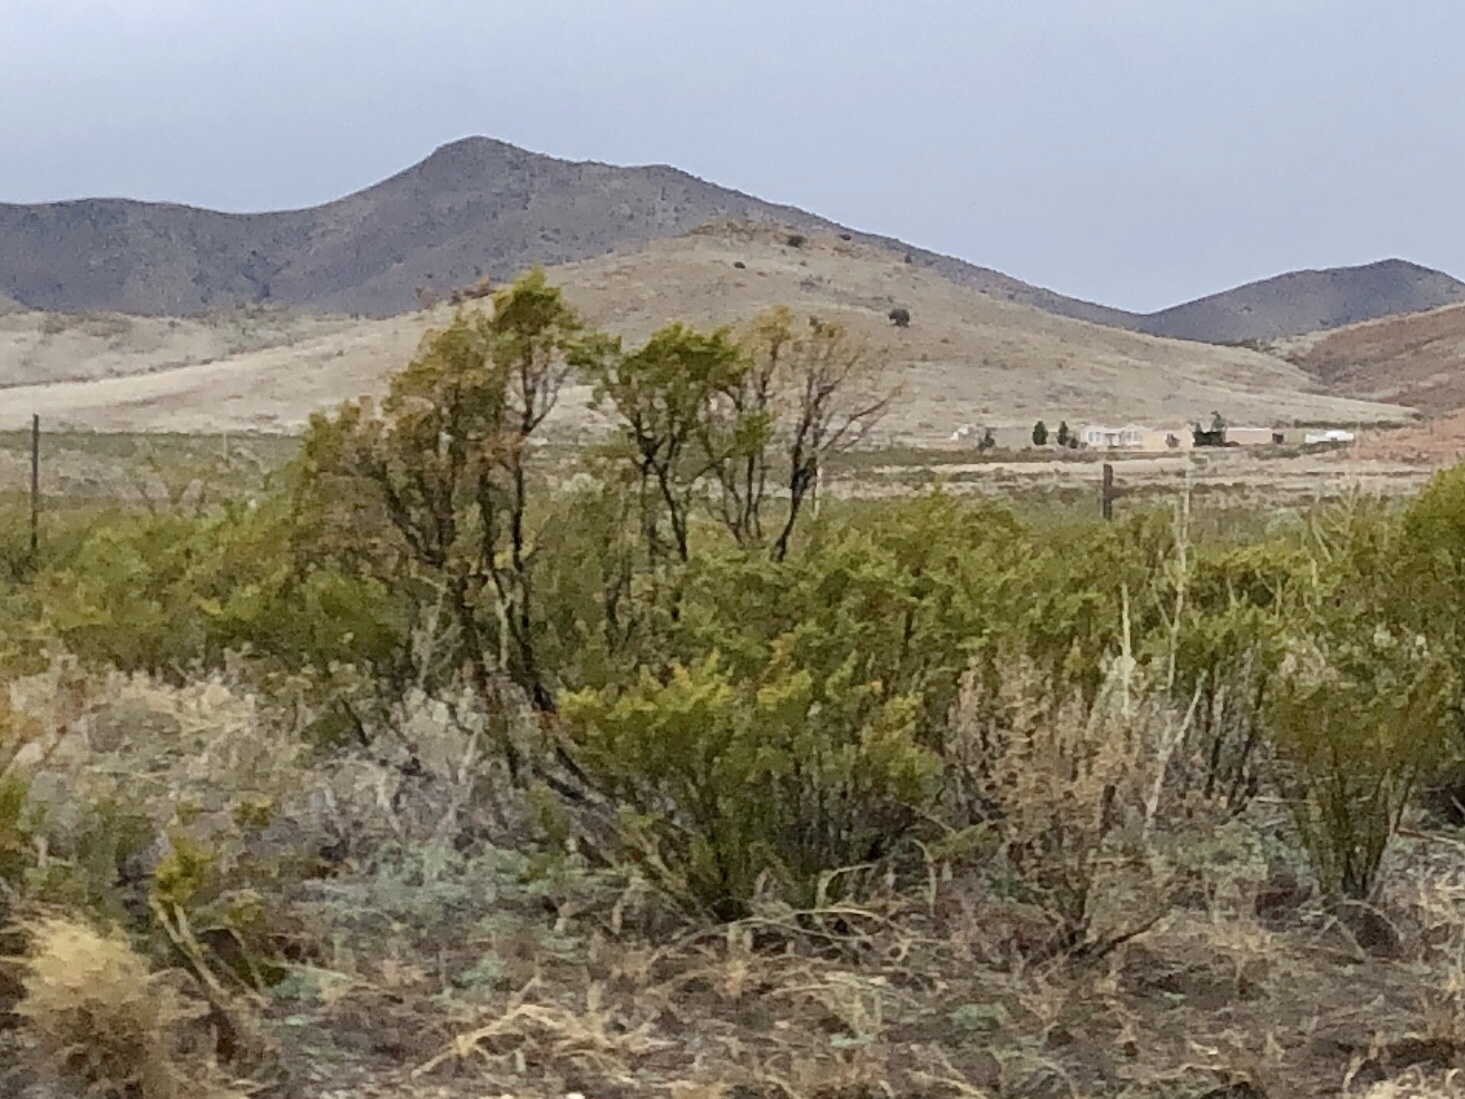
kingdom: Plantae
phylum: Tracheophyta
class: Magnoliopsida
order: Zygophyllales
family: Zygophyllaceae
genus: Larrea
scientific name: Larrea tridentata
